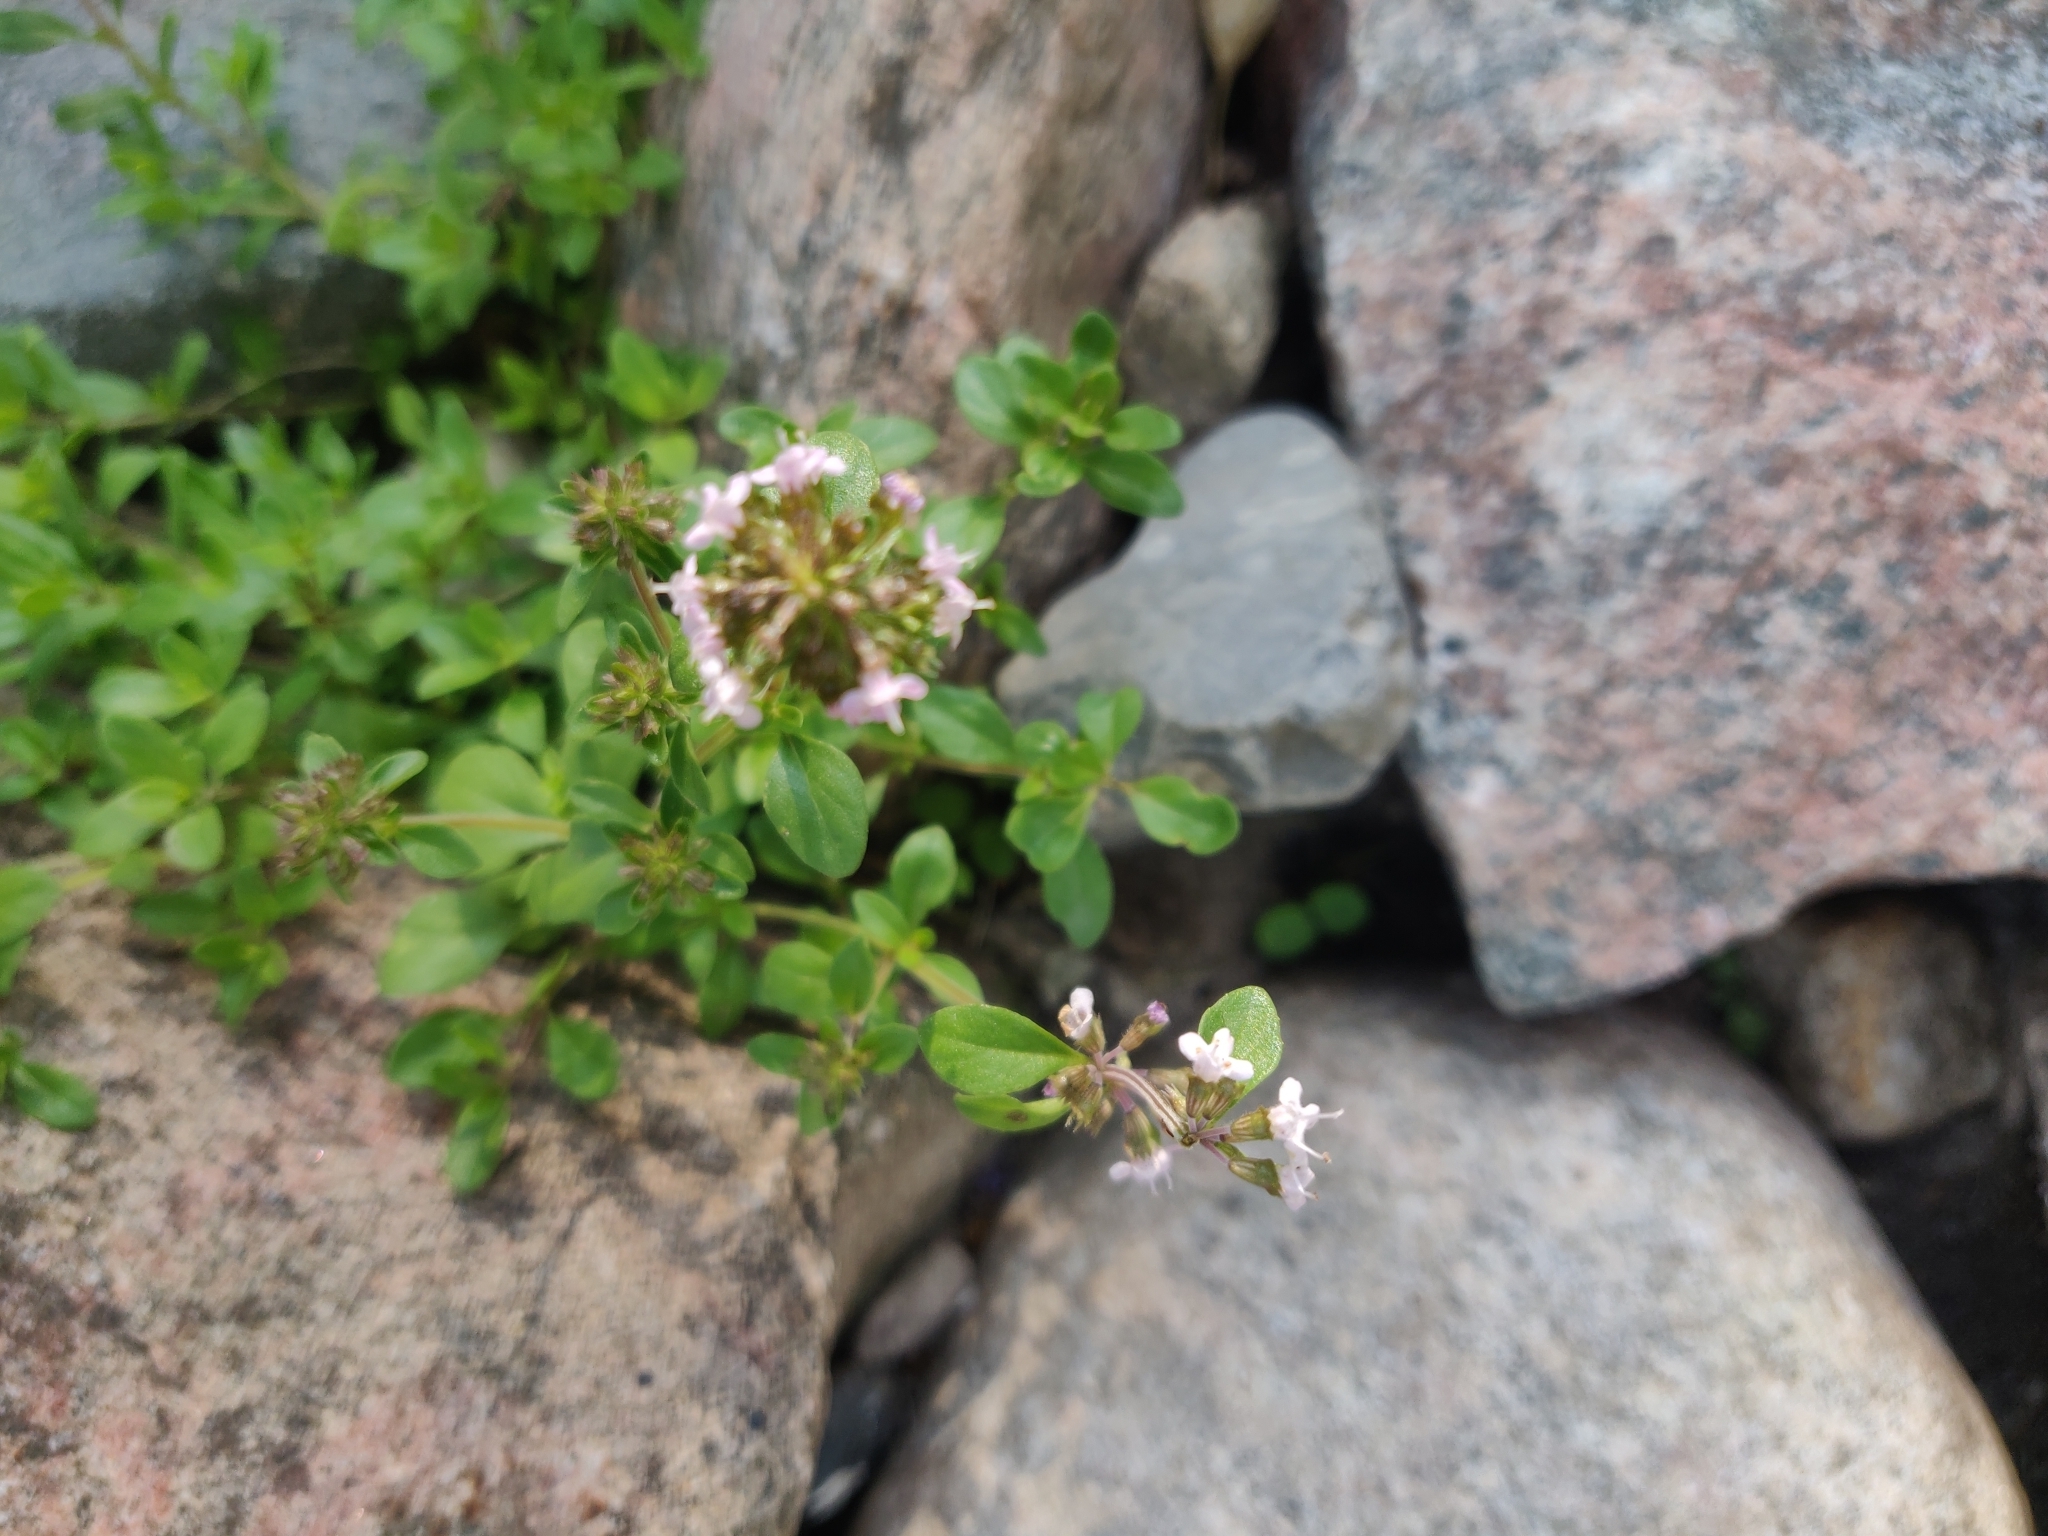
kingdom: Plantae
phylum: Tracheophyta
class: Magnoliopsida
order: Lamiales
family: Lamiaceae
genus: Thymus
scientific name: Thymus pulegioides
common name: Large thyme
